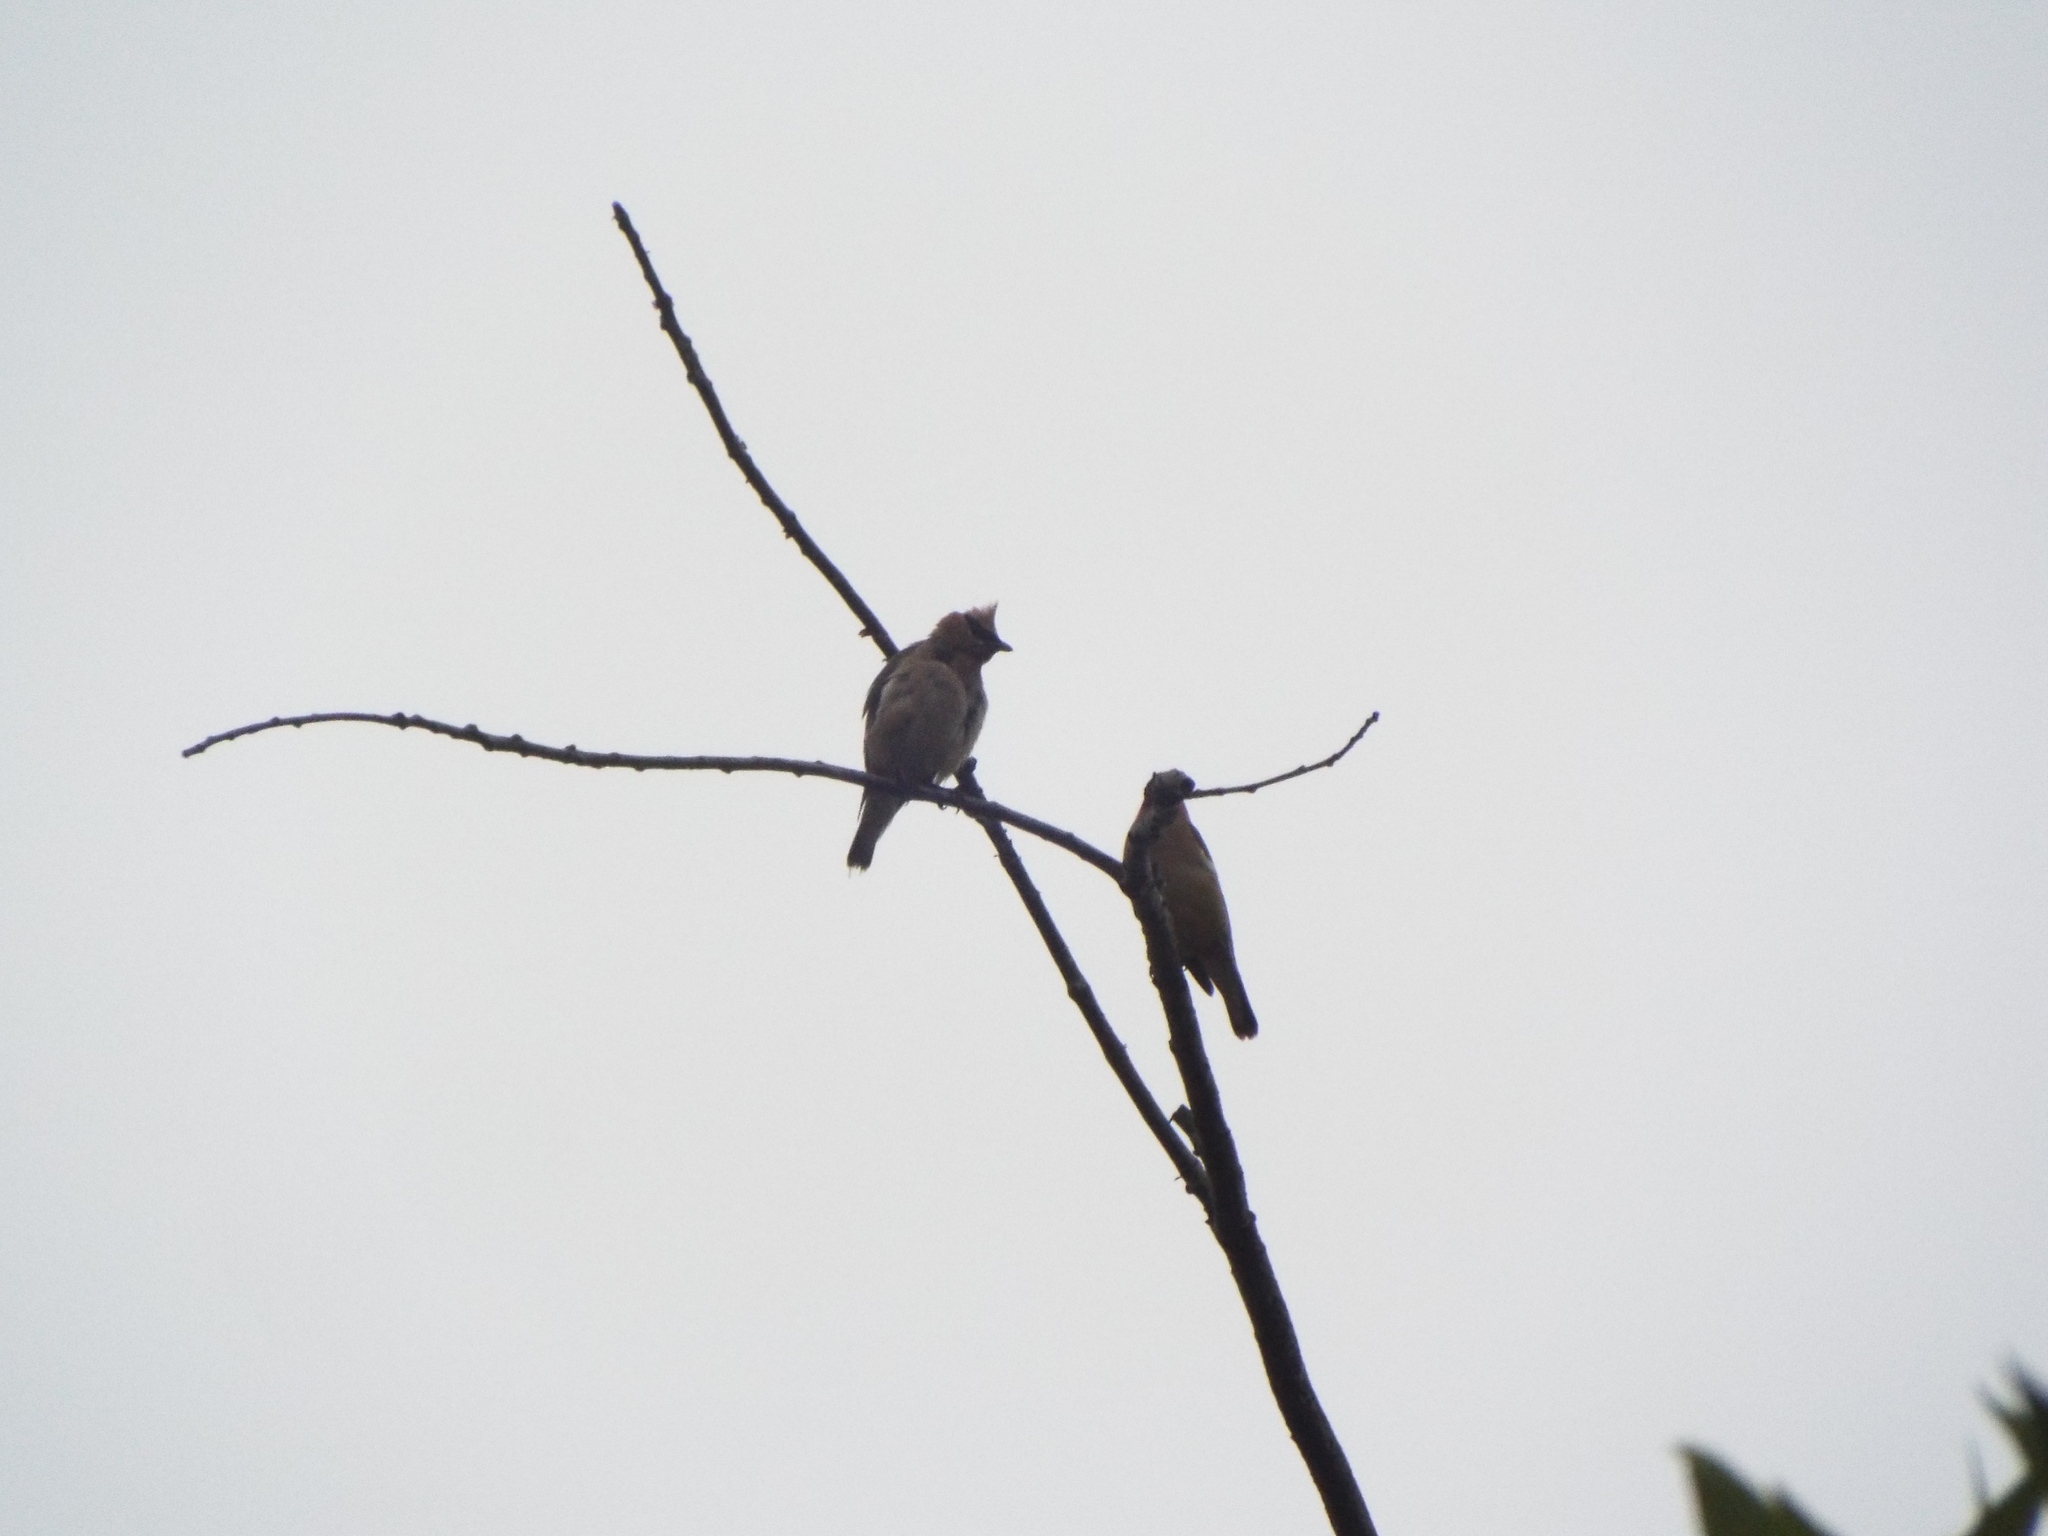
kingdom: Animalia
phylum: Chordata
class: Aves
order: Passeriformes
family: Bombycillidae
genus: Bombycilla
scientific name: Bombycilla cedrorum
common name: Cedar waxwing
